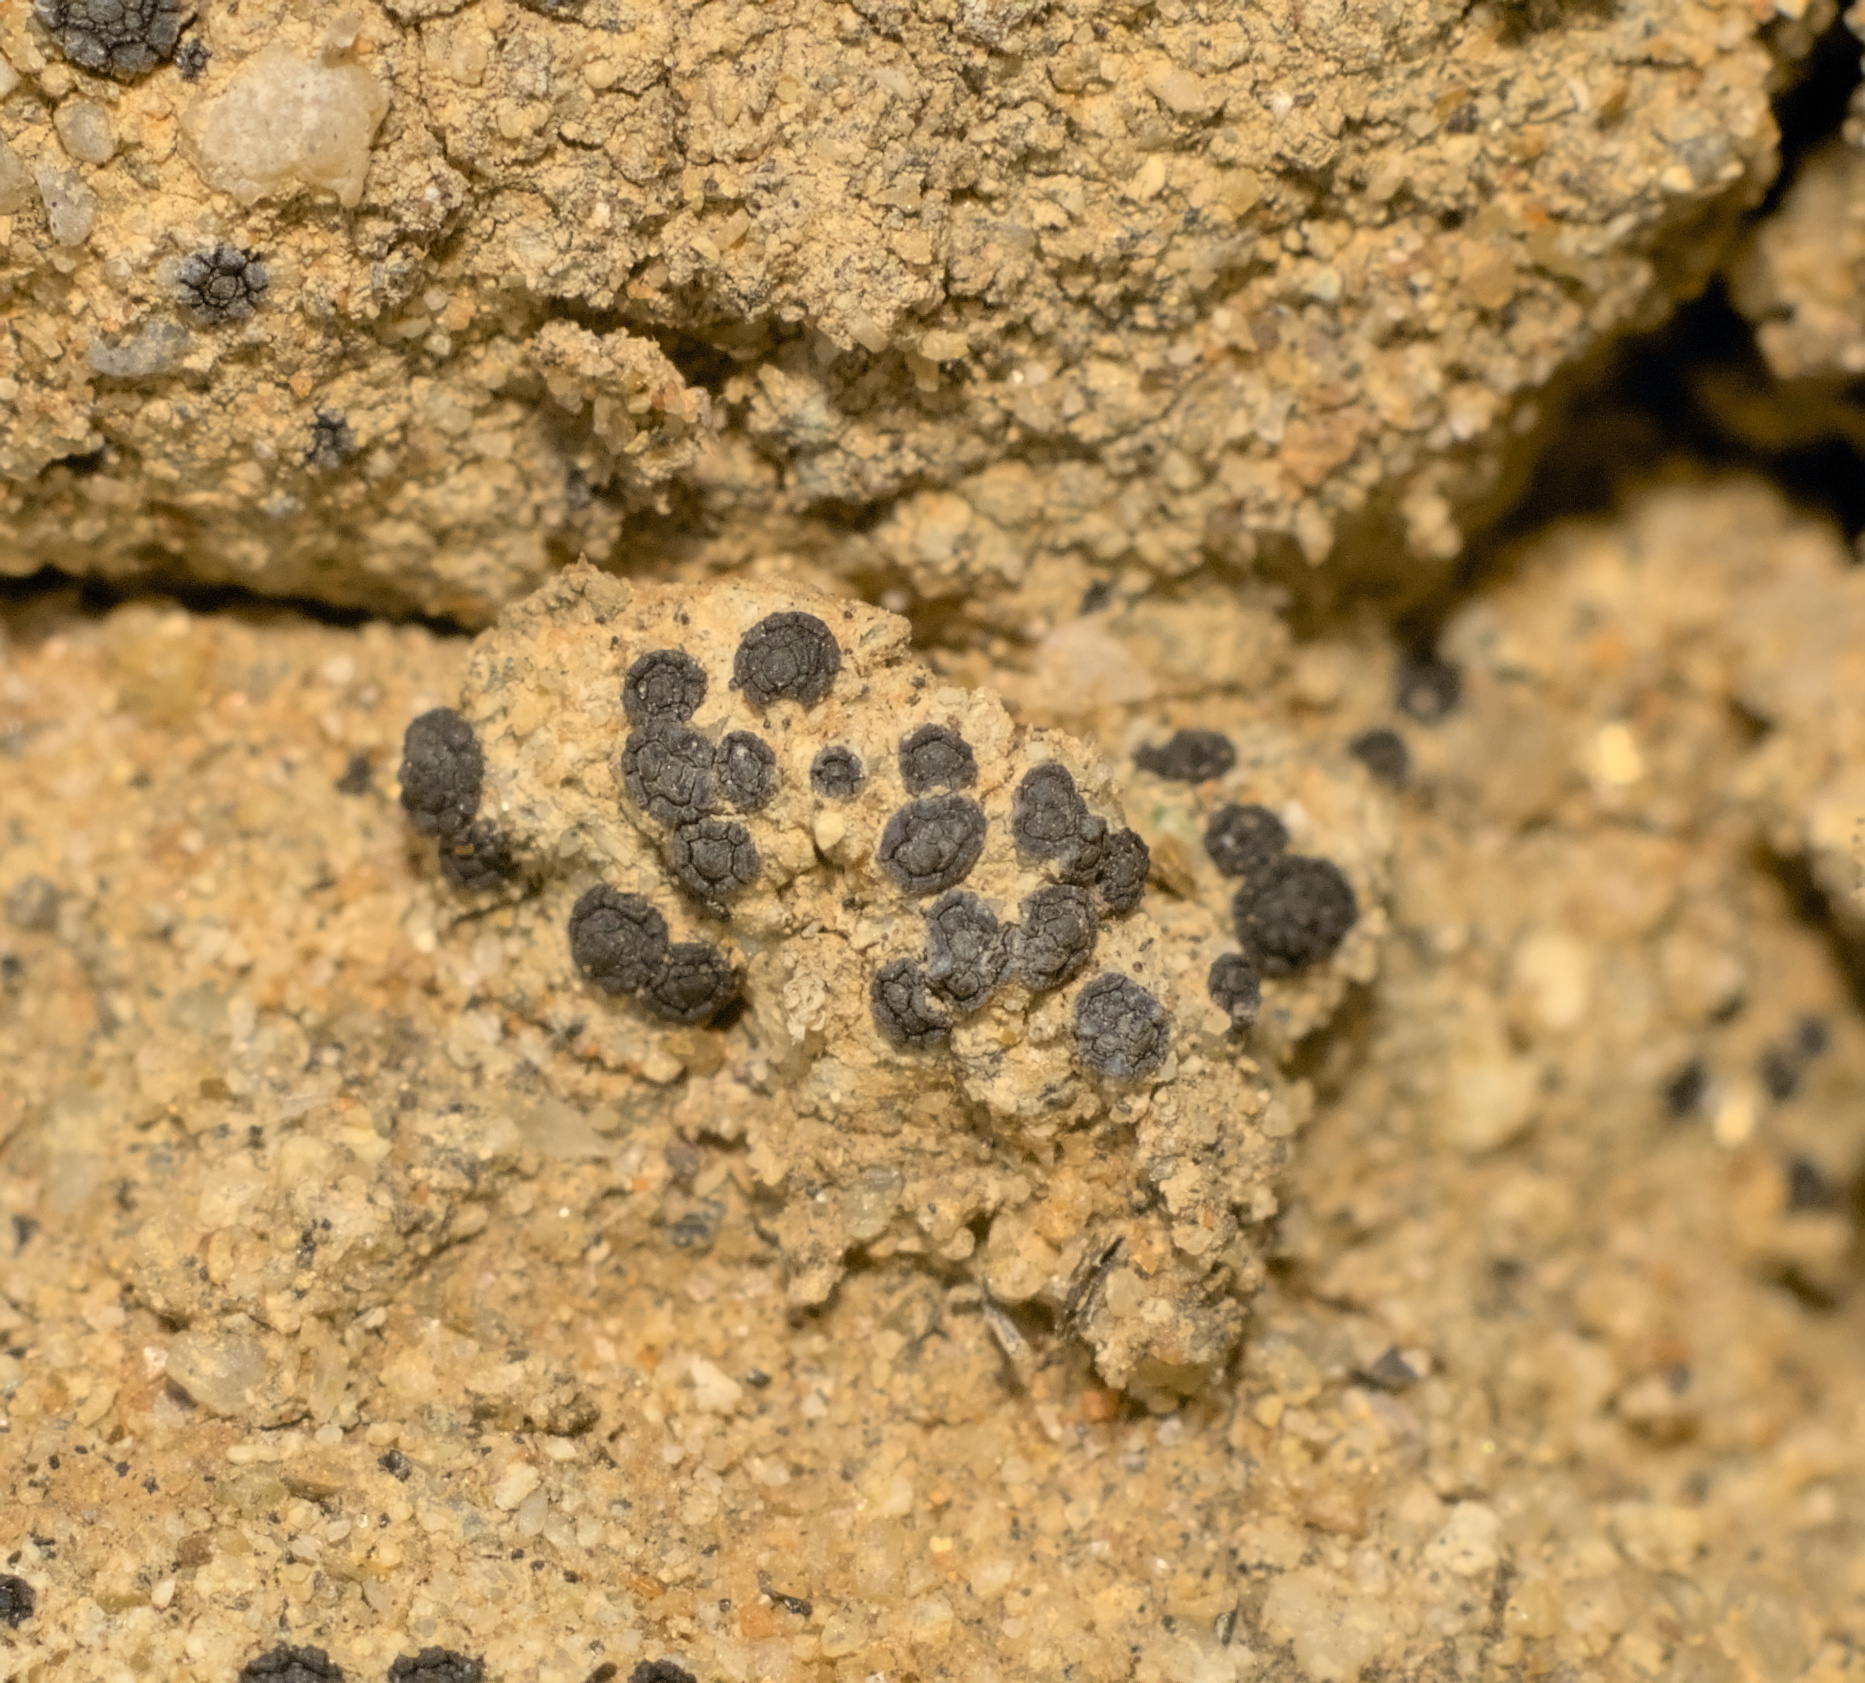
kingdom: Fungi
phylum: Ascomycota
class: Lecanoromycetes
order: Acarosporales
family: Acarosporaceae
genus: Acarospora
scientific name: Acarospora privigna
